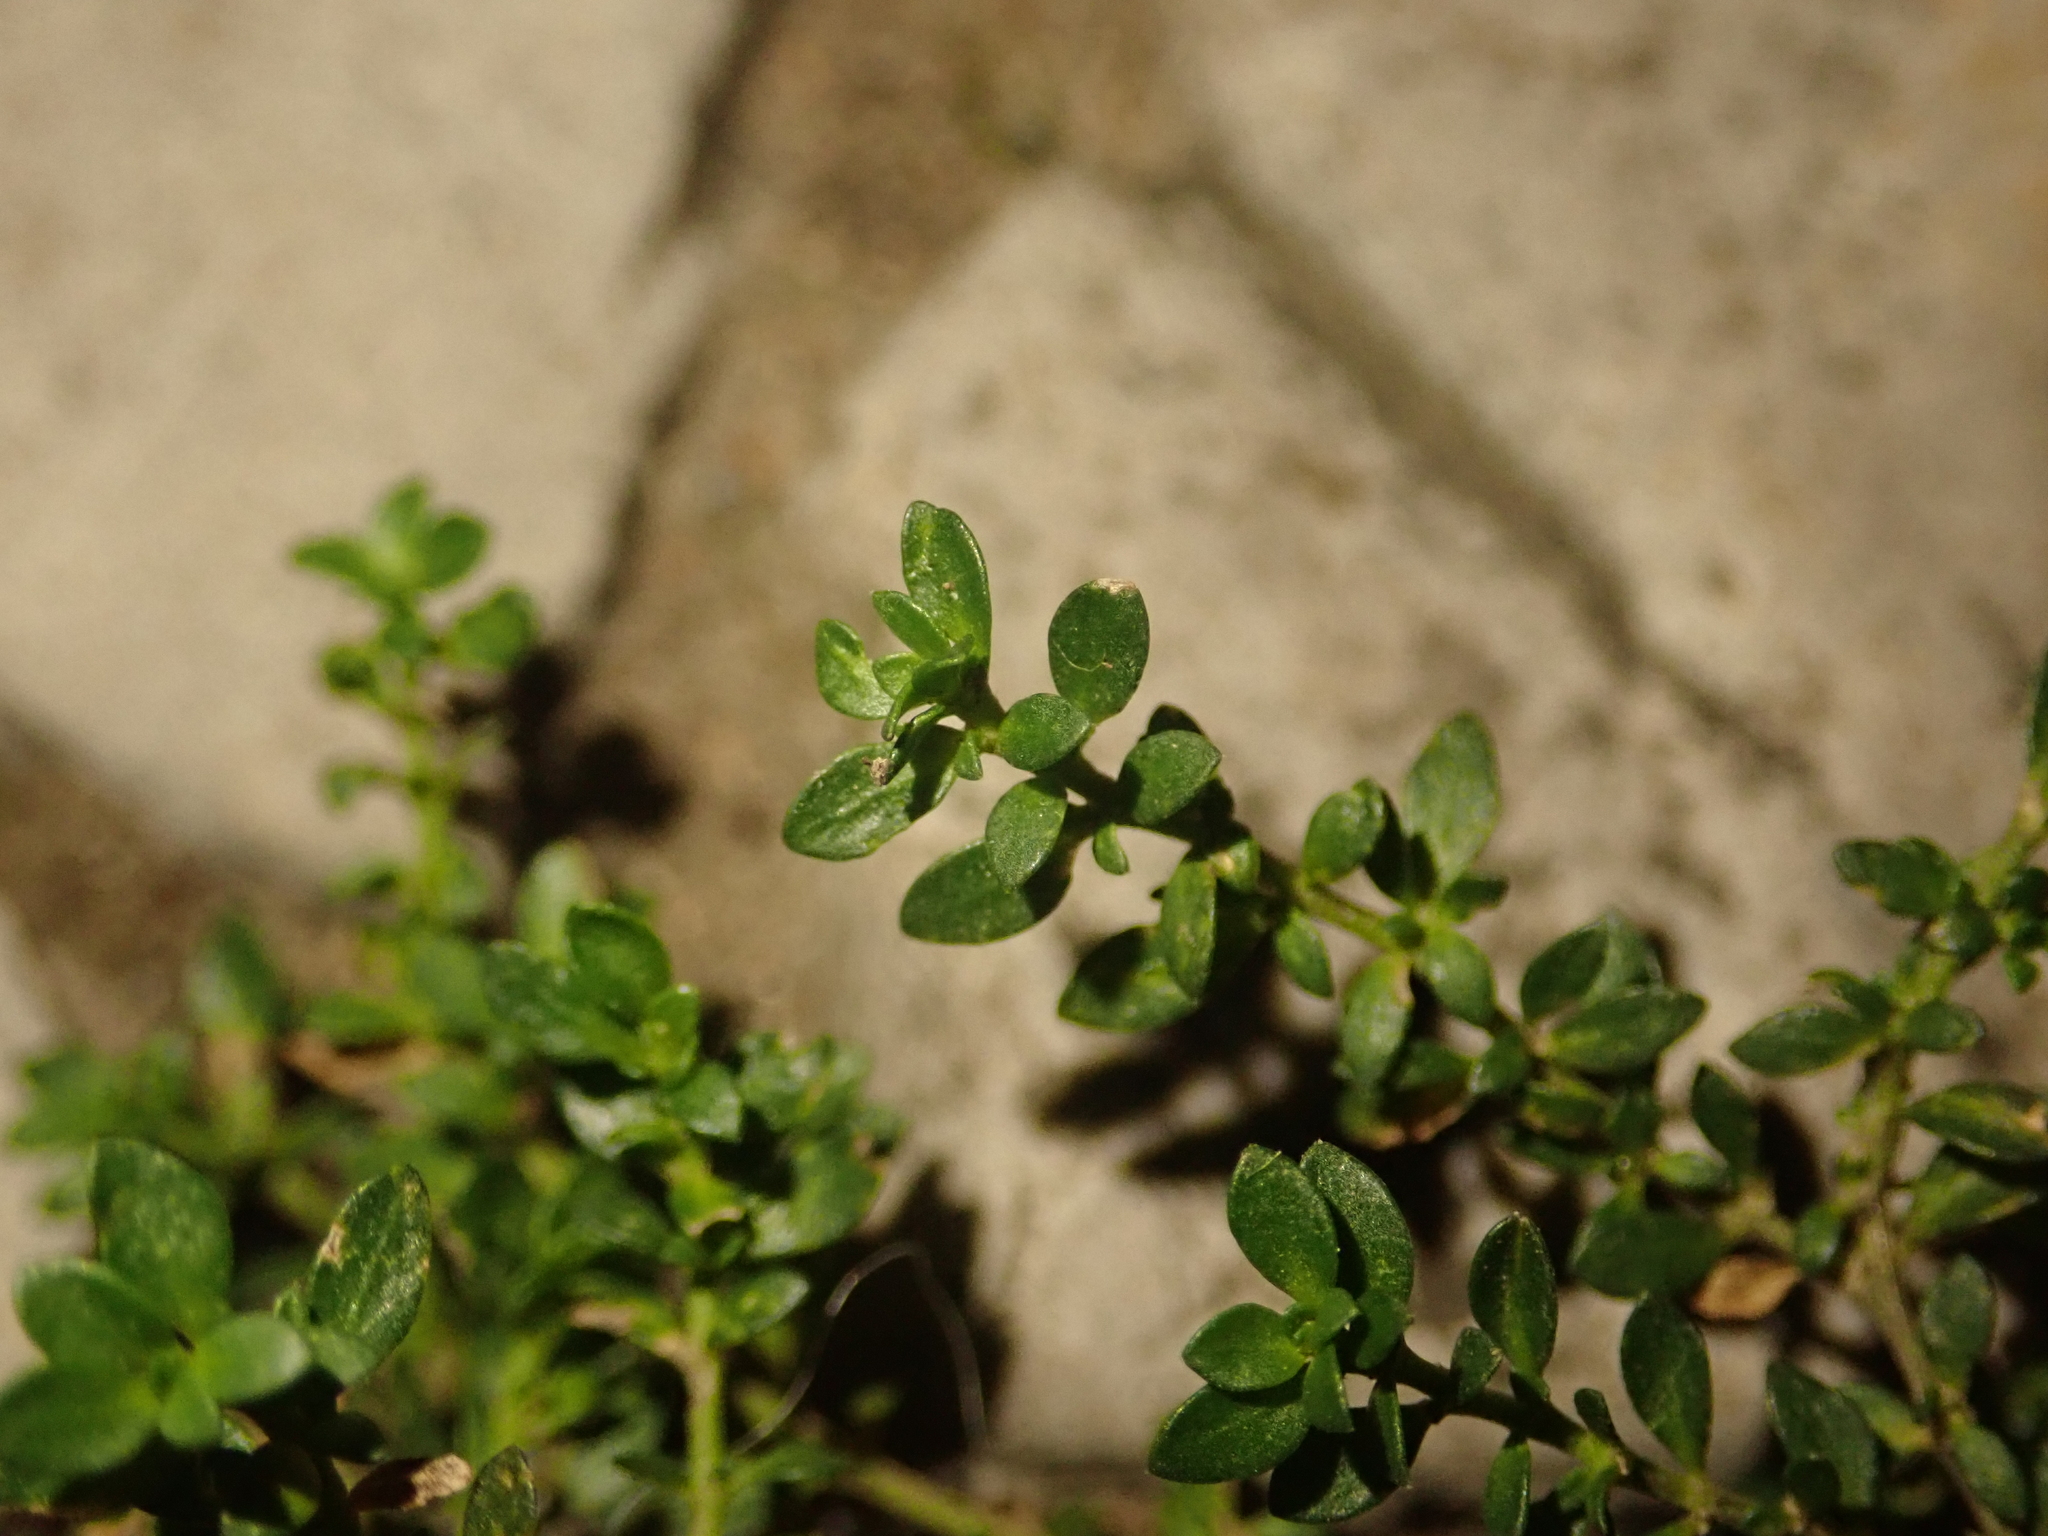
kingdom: Plantae
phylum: Tracheophyta
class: Magnoliopsida
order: Caryophyllales
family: Caryophyllaceae
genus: Herniaria
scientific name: Herniaria glabra
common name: Smooth rupturewort
